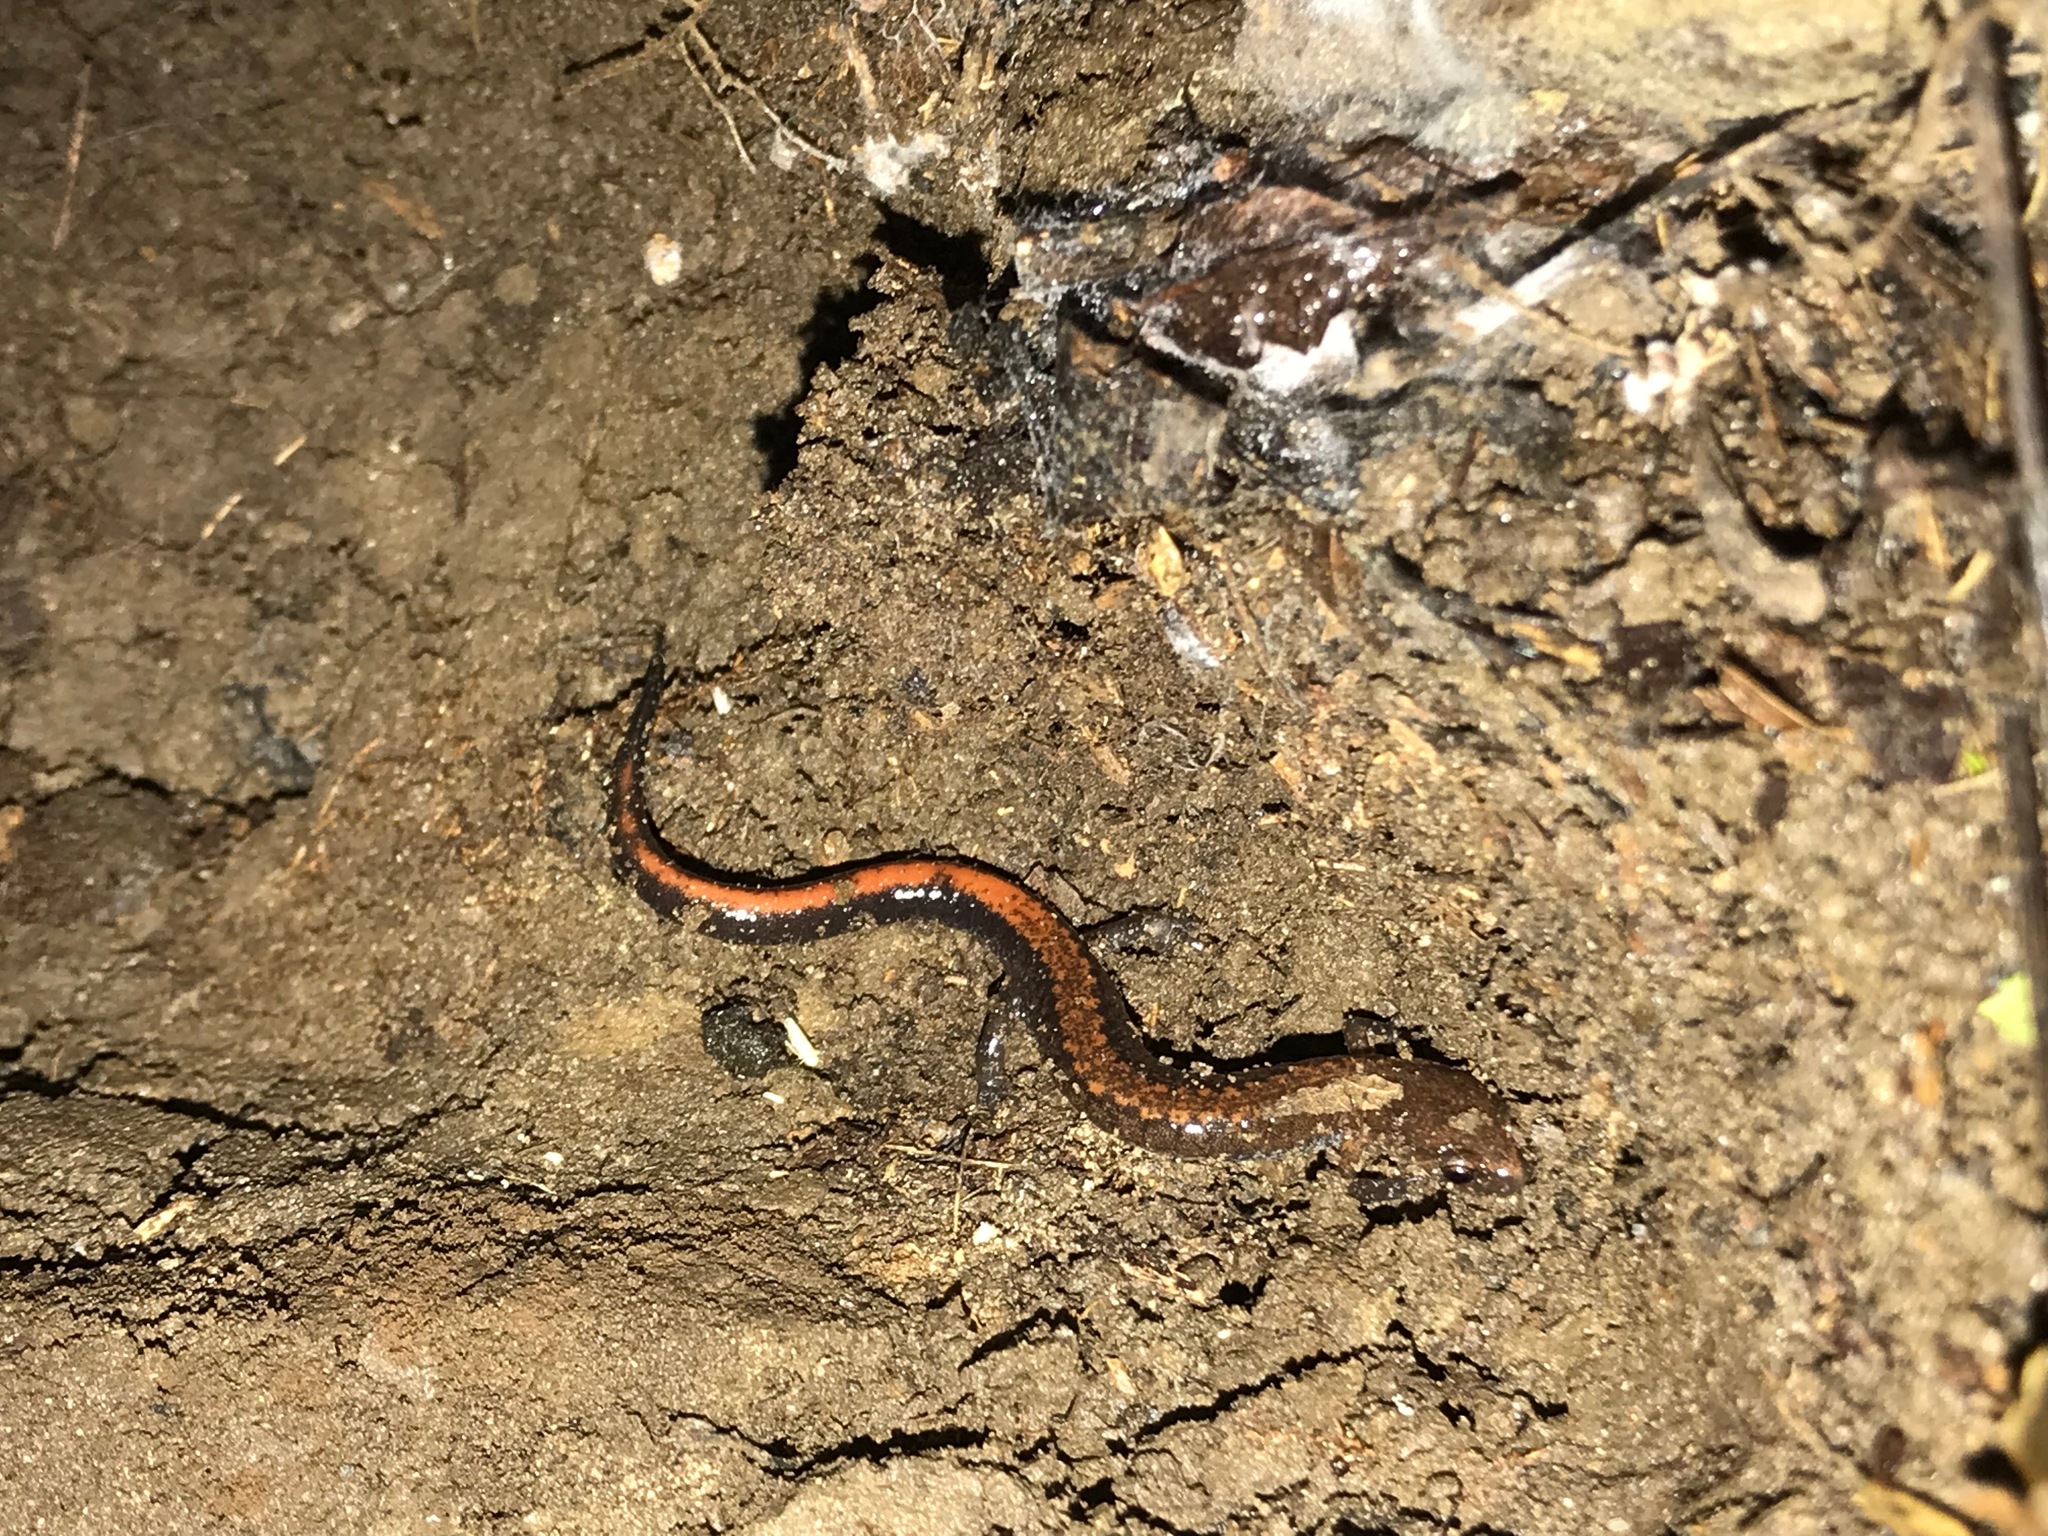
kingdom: Animalia
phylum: Chordata
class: Amphibia
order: Caudata
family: Plethodontidae
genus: Plethodon
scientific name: Plethodon serratus
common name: Southern red-backed salamander
